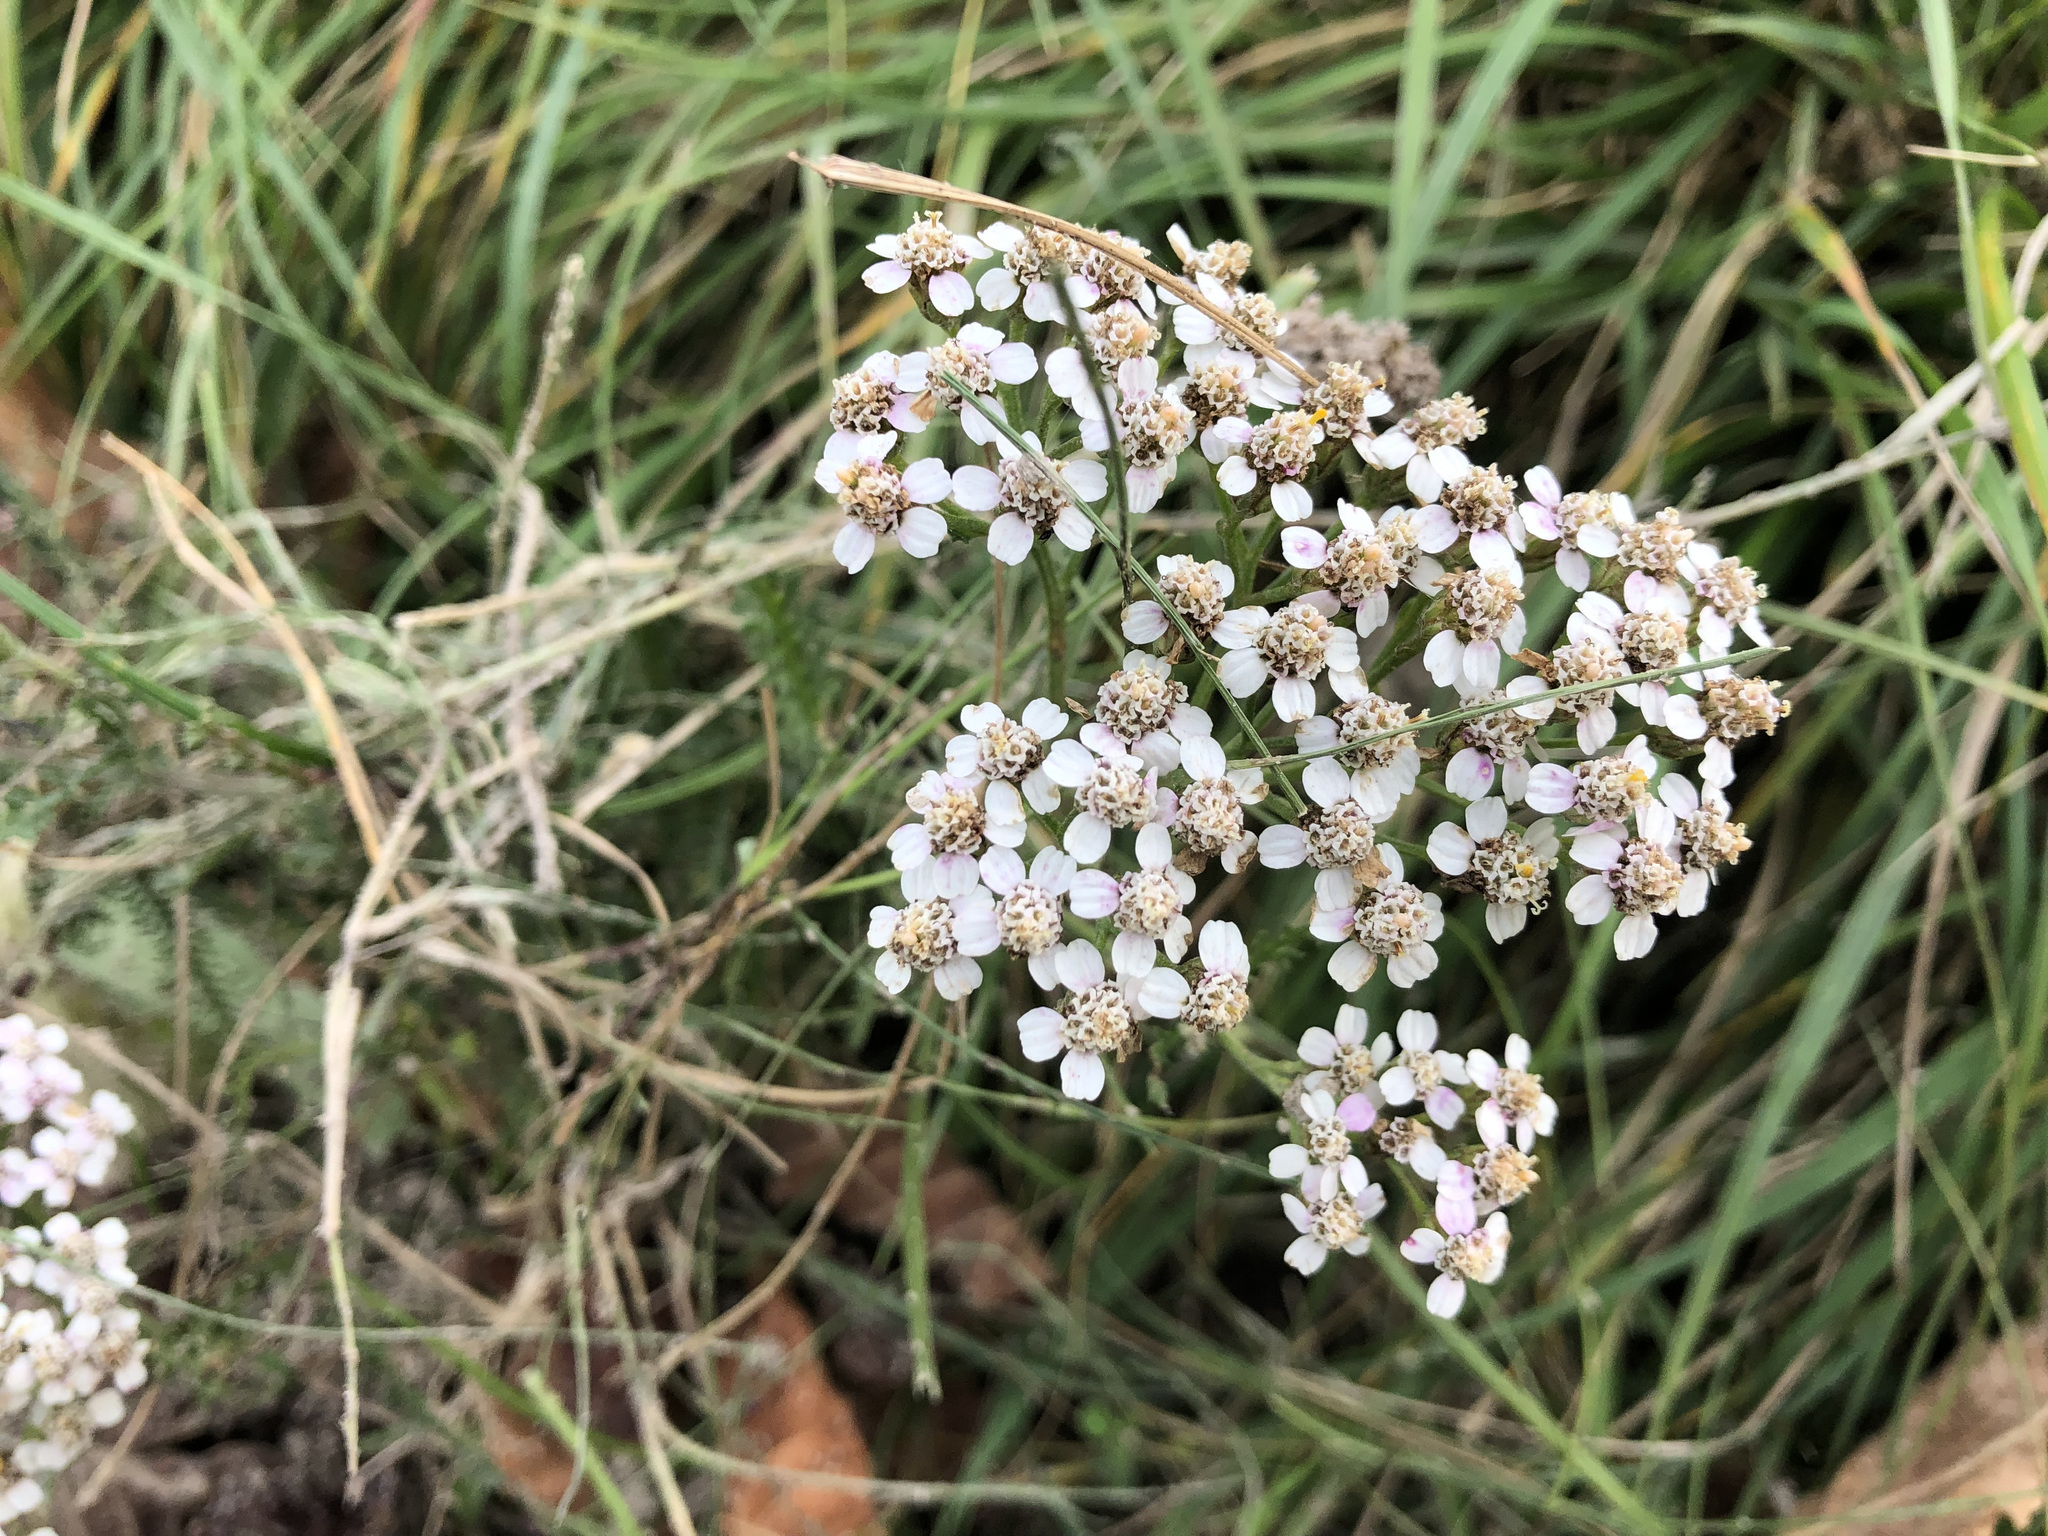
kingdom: Plantae
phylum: Tracheophyta
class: Magnoliopsida
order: Asterales
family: Asteraceae
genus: Achillea
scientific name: Achillea millefolium
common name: Yarrow
